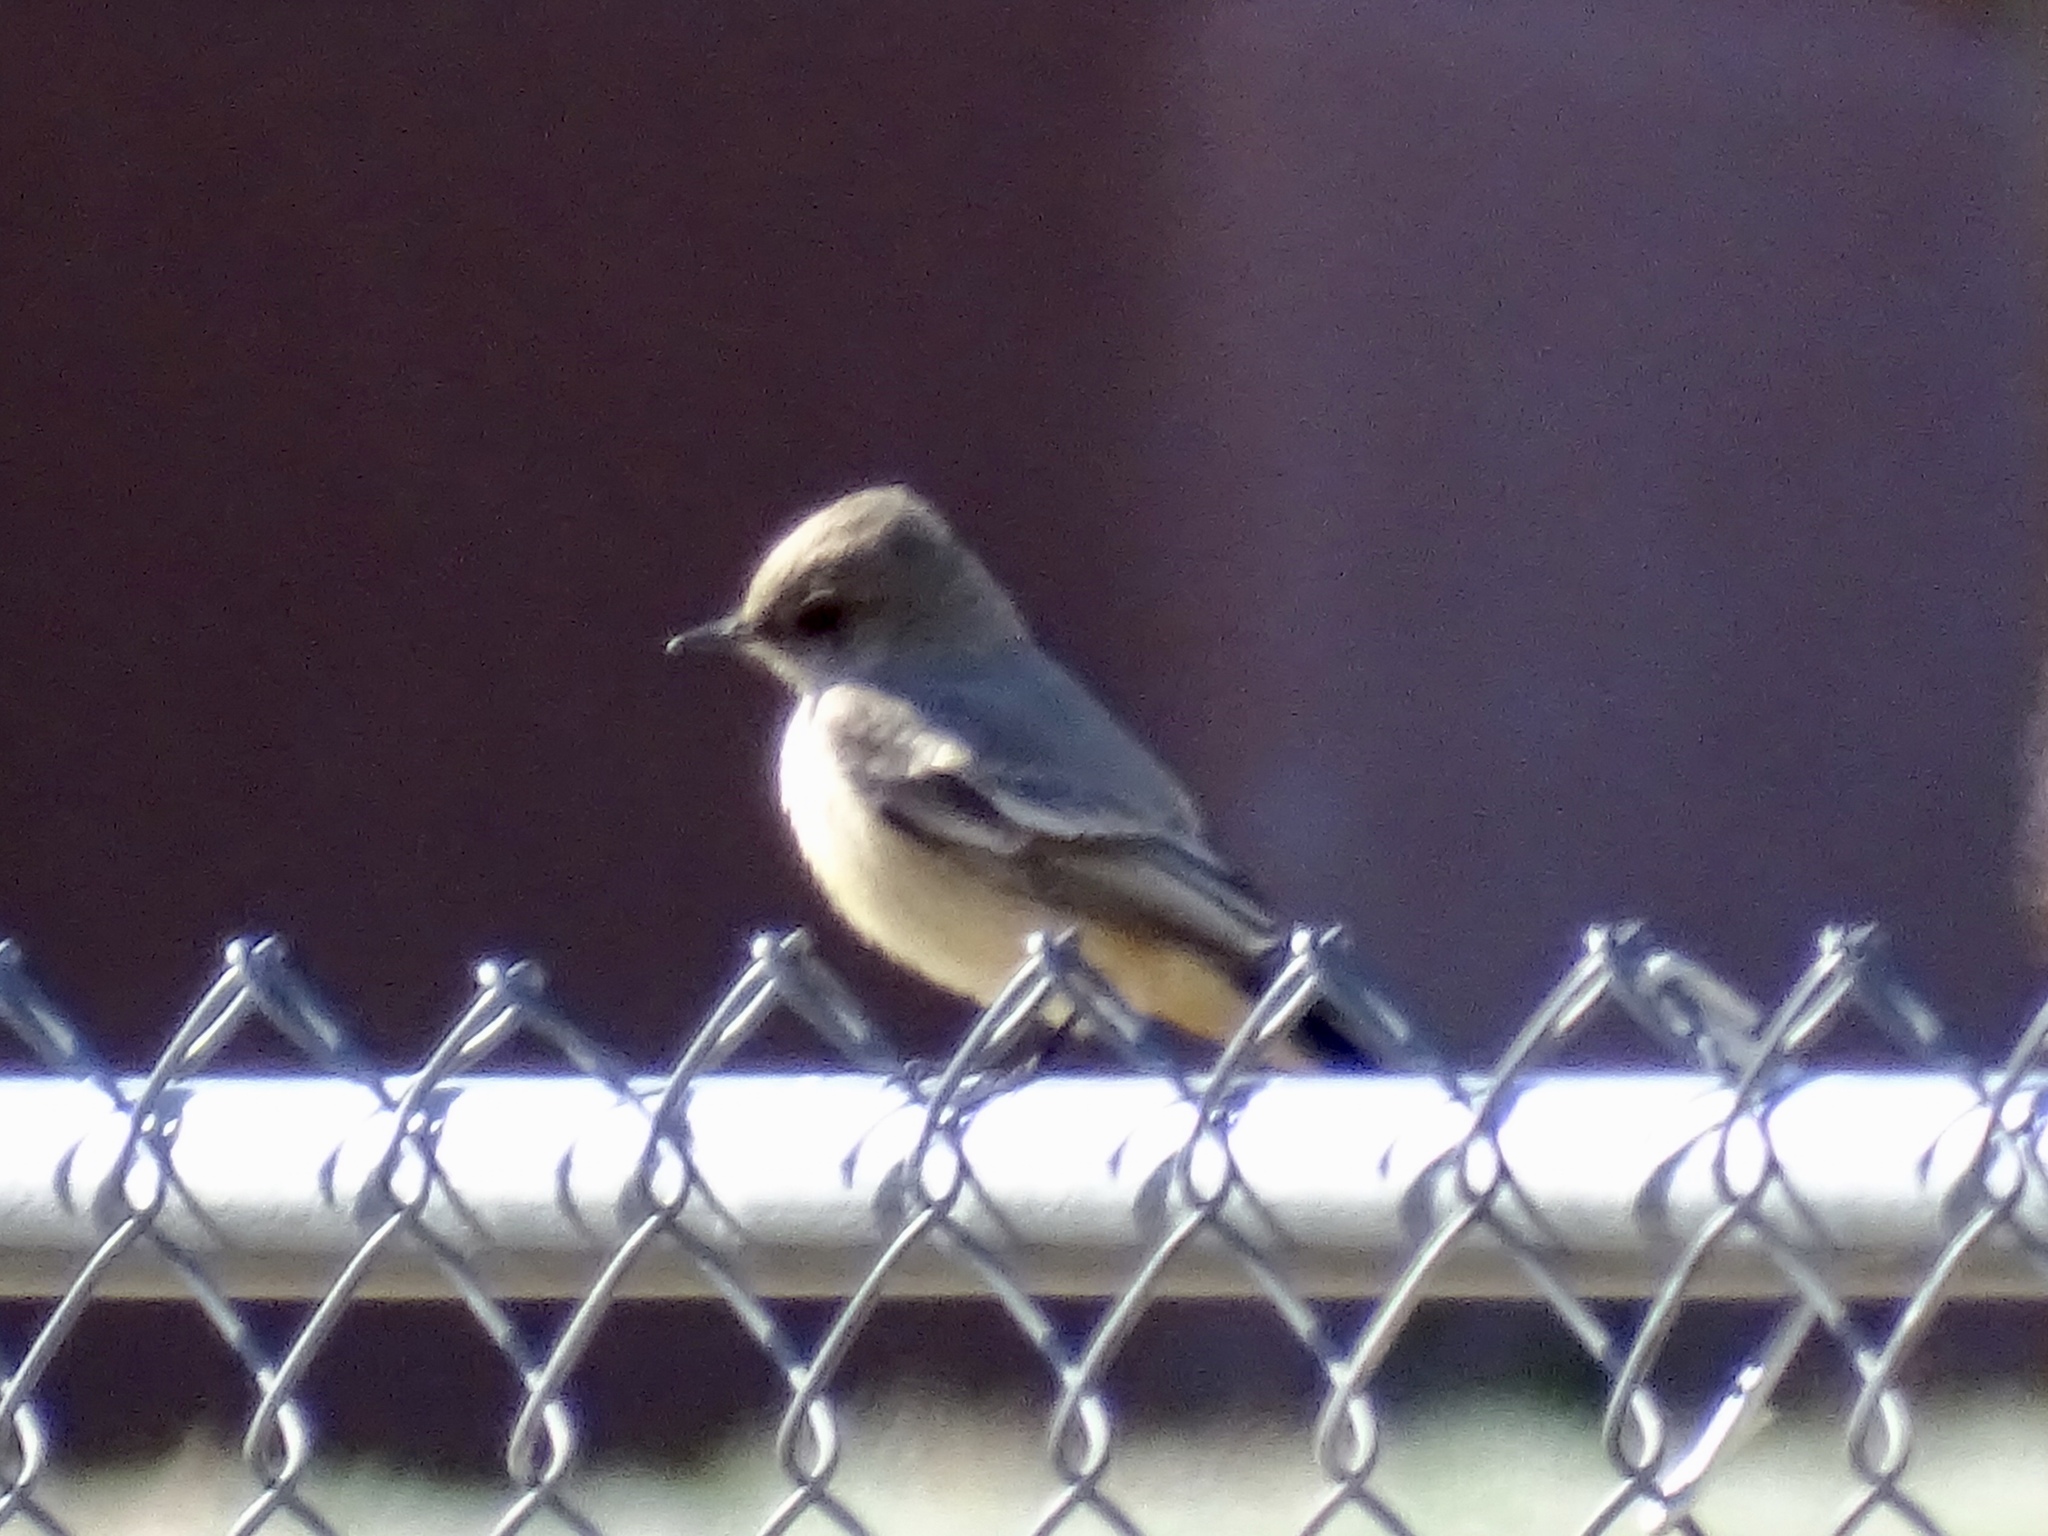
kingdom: Animalia
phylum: Chordata
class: Aves
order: Passeriformes
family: Tyrannidae
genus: Sayornis
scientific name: Sayornis saya
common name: Say's phoebe
